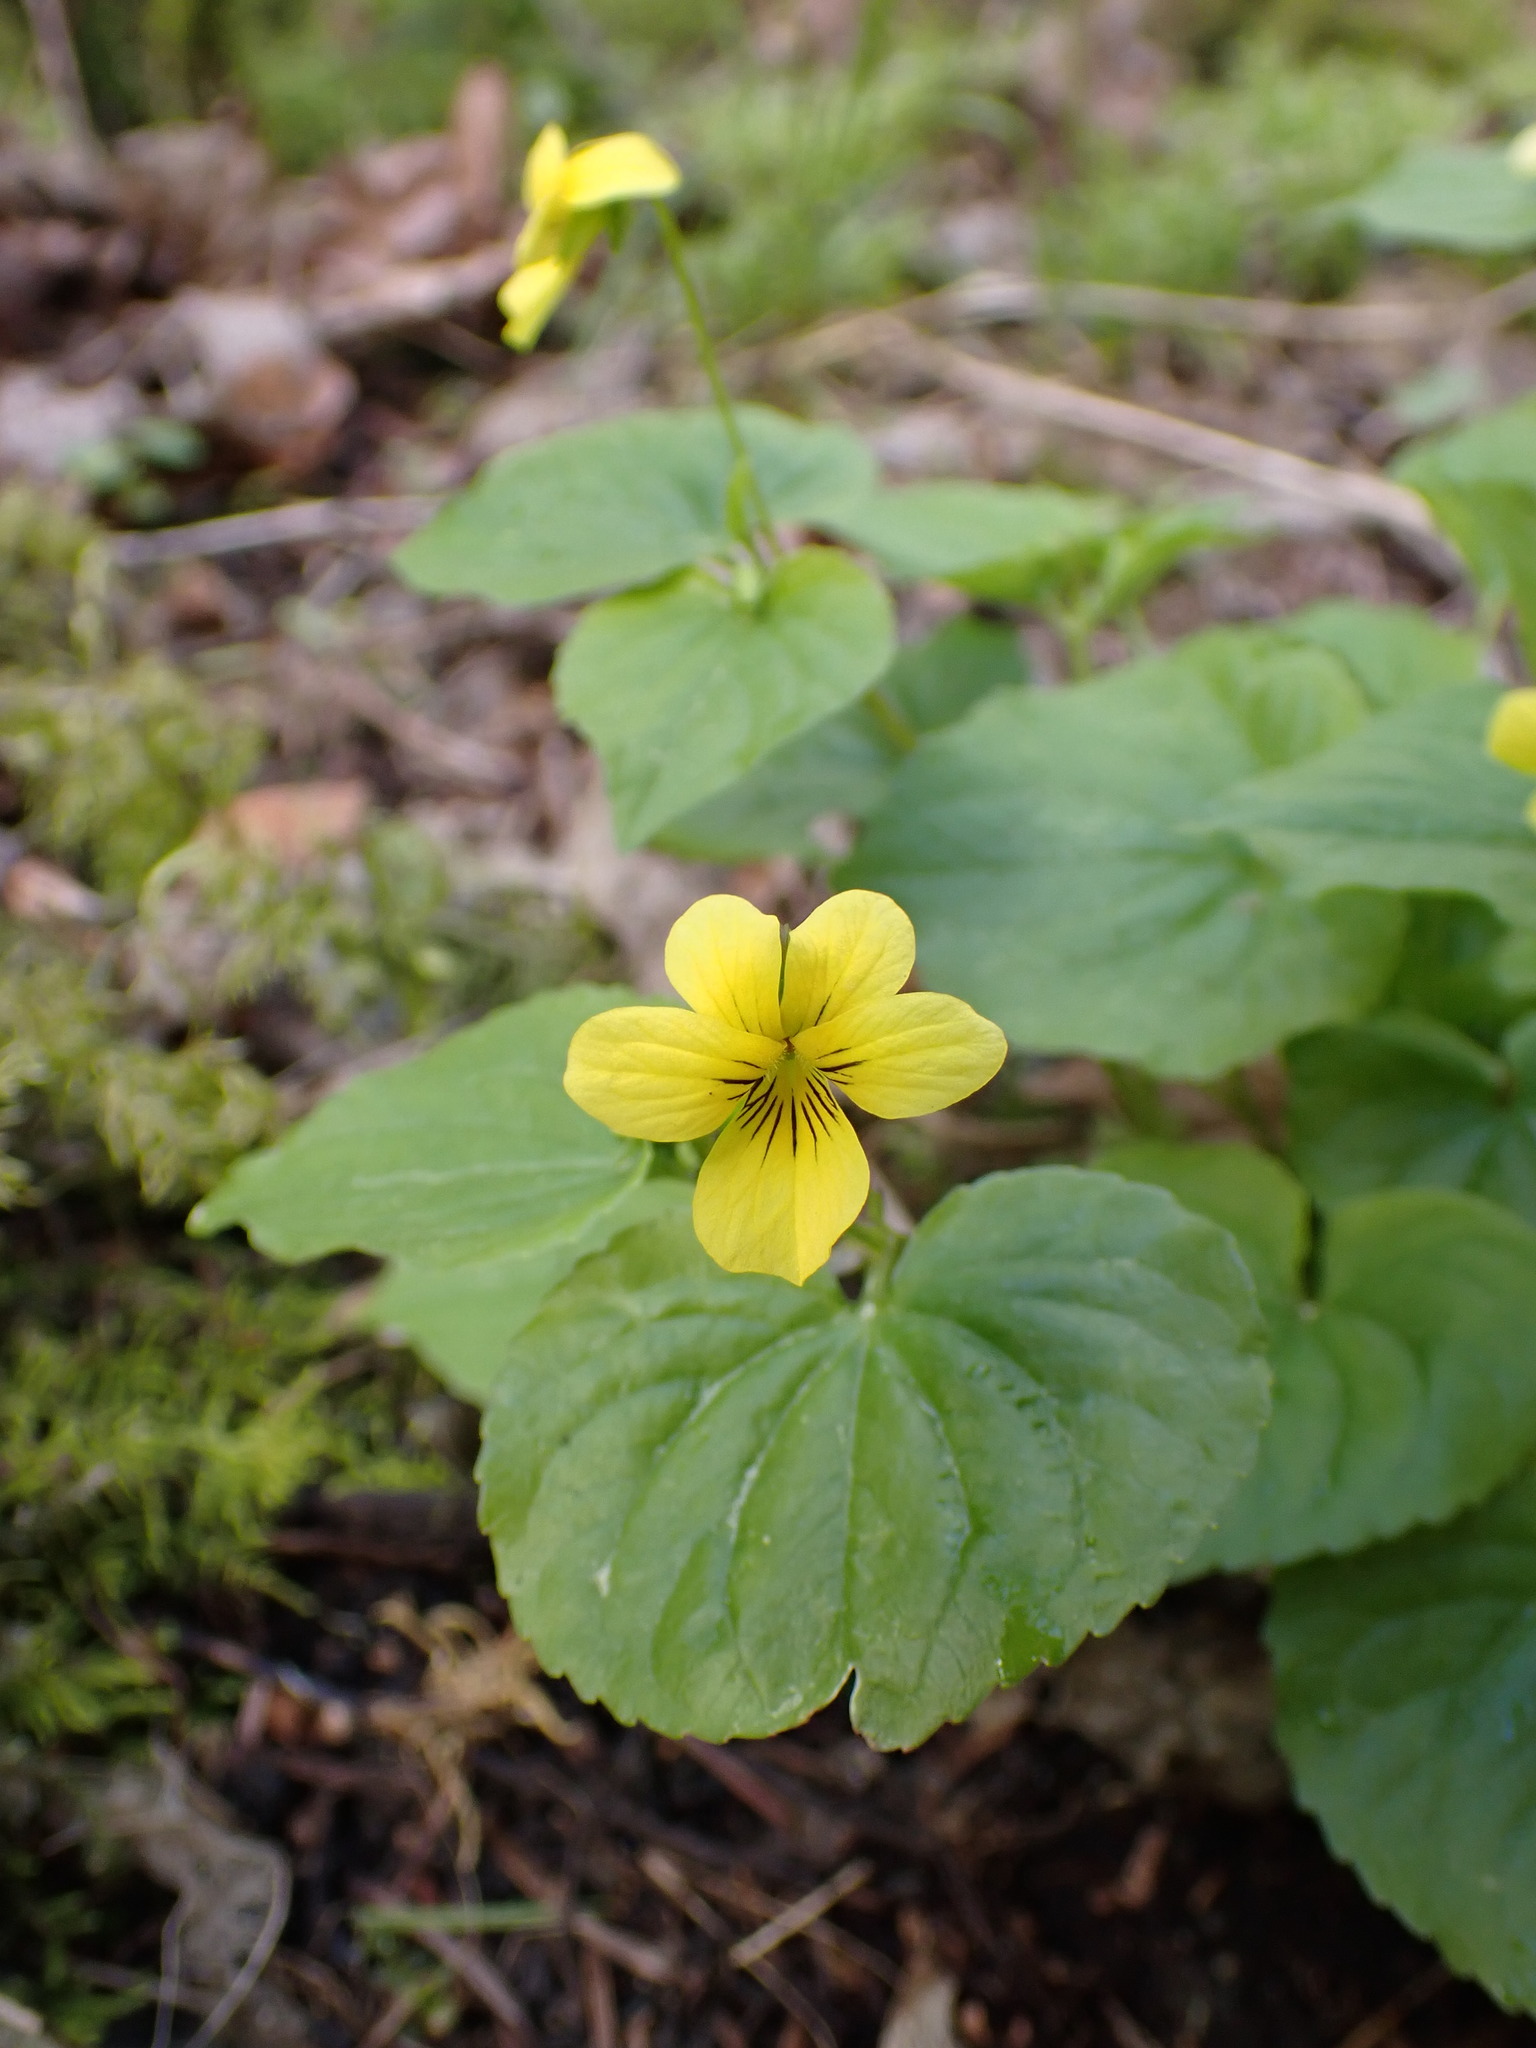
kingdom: Plantae
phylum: Tracheophyta
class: Magnoliopsida
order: Malpighiales
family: Violaceae
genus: Viola
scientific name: Viola glabella
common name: Stream violet
